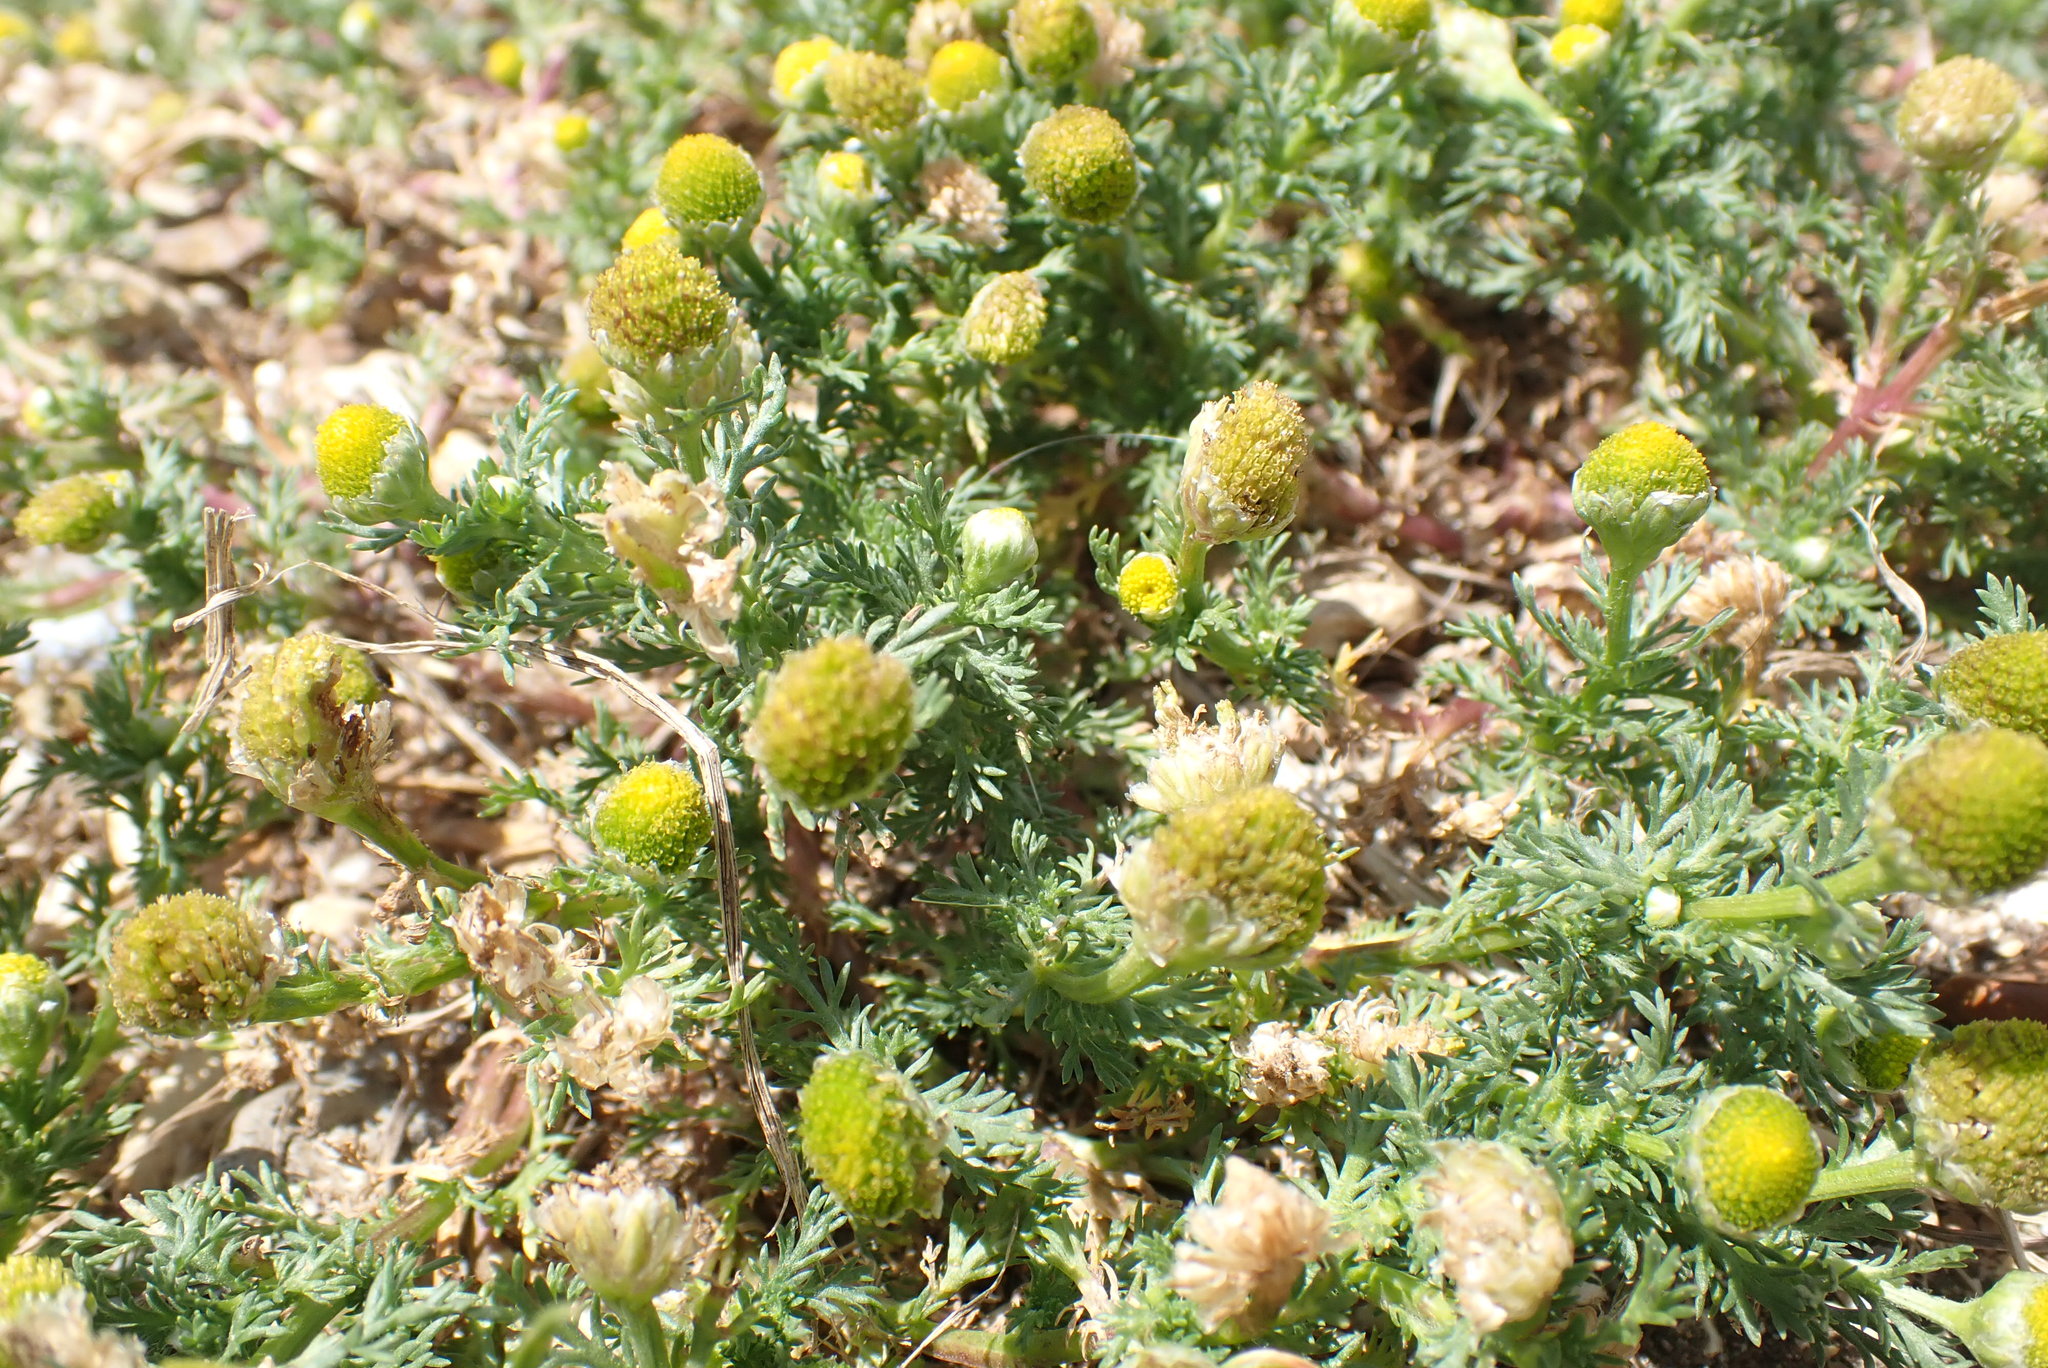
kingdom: Plantae
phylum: Tracheophyta
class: Magnoliopsida
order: Asterales
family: Asteraceae
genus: Matricaria
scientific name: Matricaria discoidea
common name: Disc mayweed
